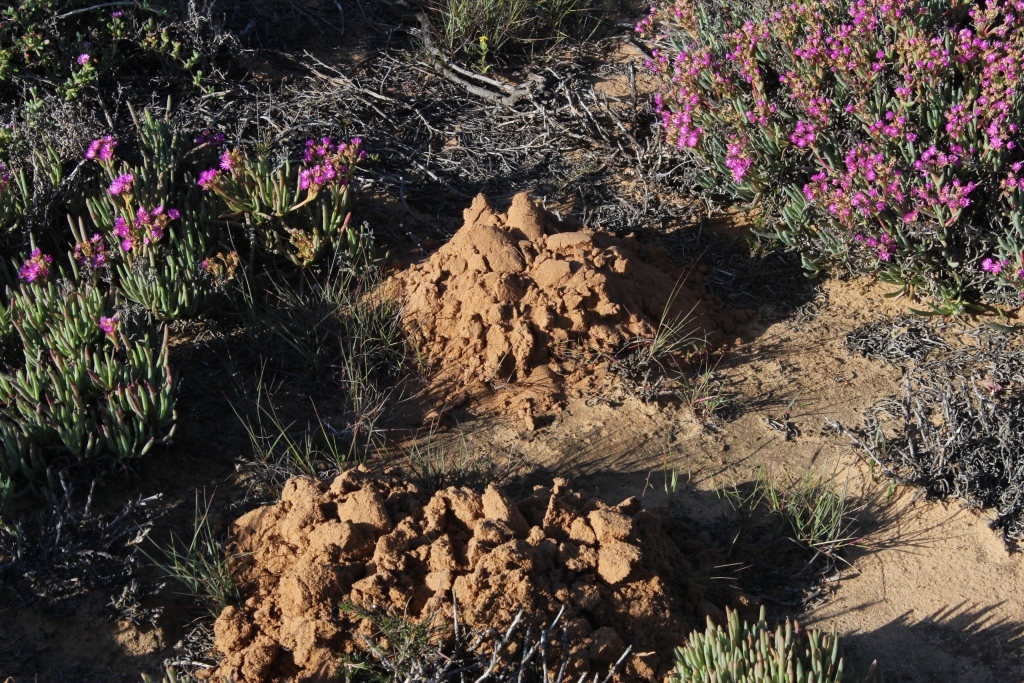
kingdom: Animalia
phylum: Chordata
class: Mammalia
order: Rodentia
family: Bathyergidae
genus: Bathyergus
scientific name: Bathyergus janetta
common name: Namaqua dune mole-rat
